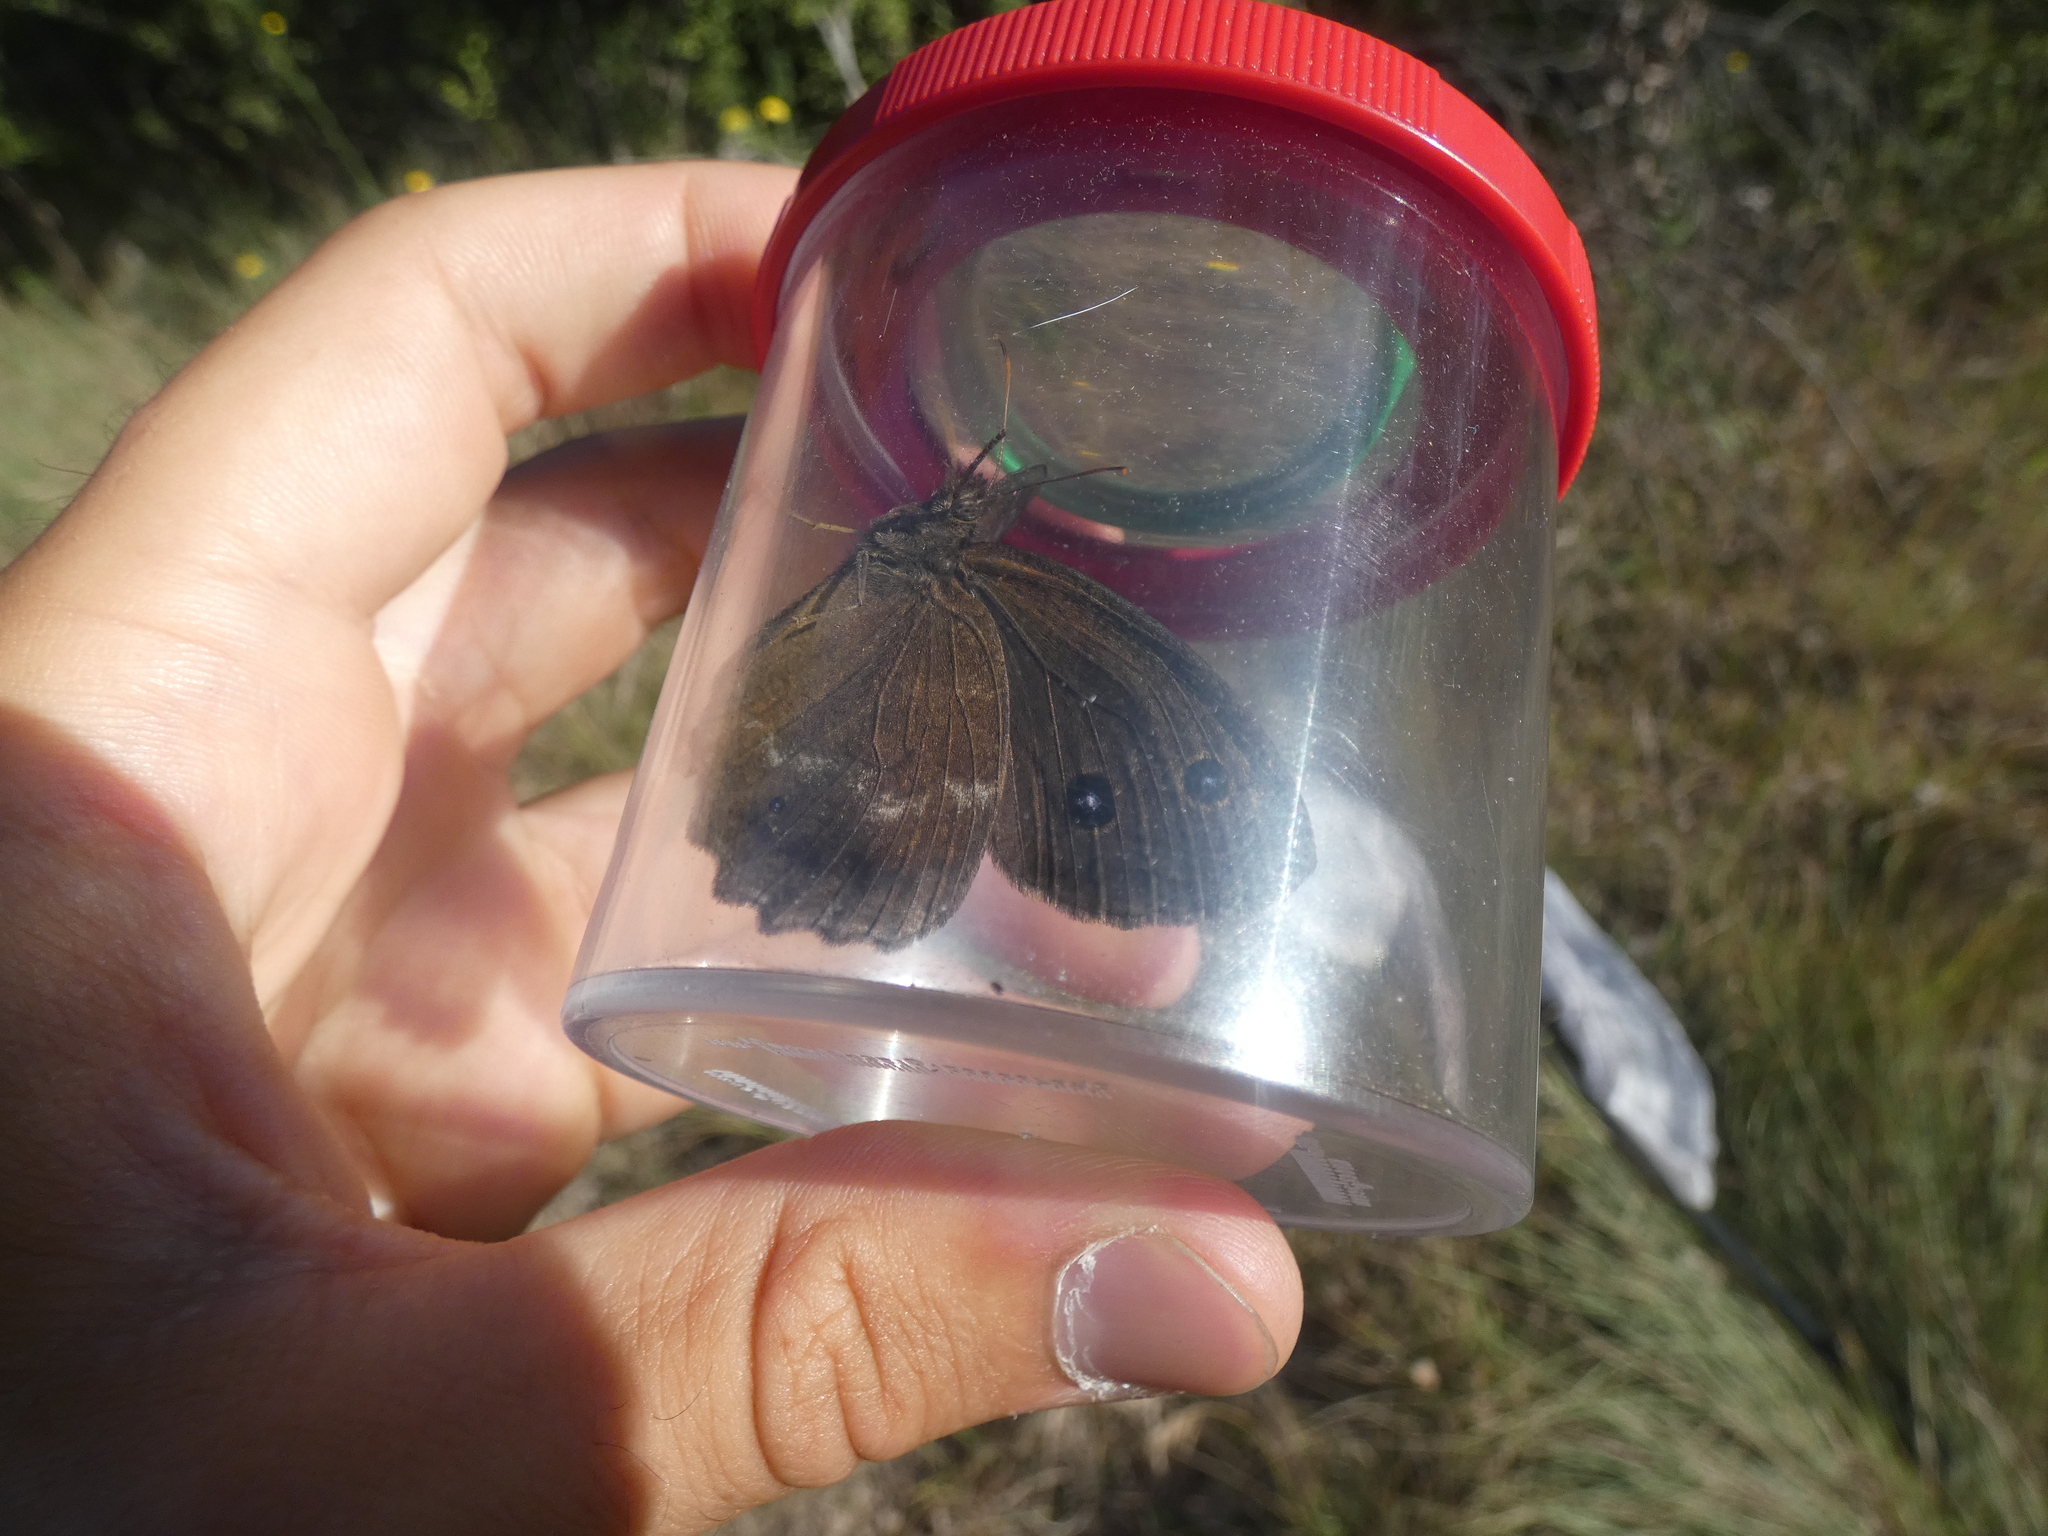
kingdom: Animalia
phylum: Arthropoda
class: Insecta
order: Lepidoptera
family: Nymphalidae
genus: Minois
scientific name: Minois dryas
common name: Dryad
